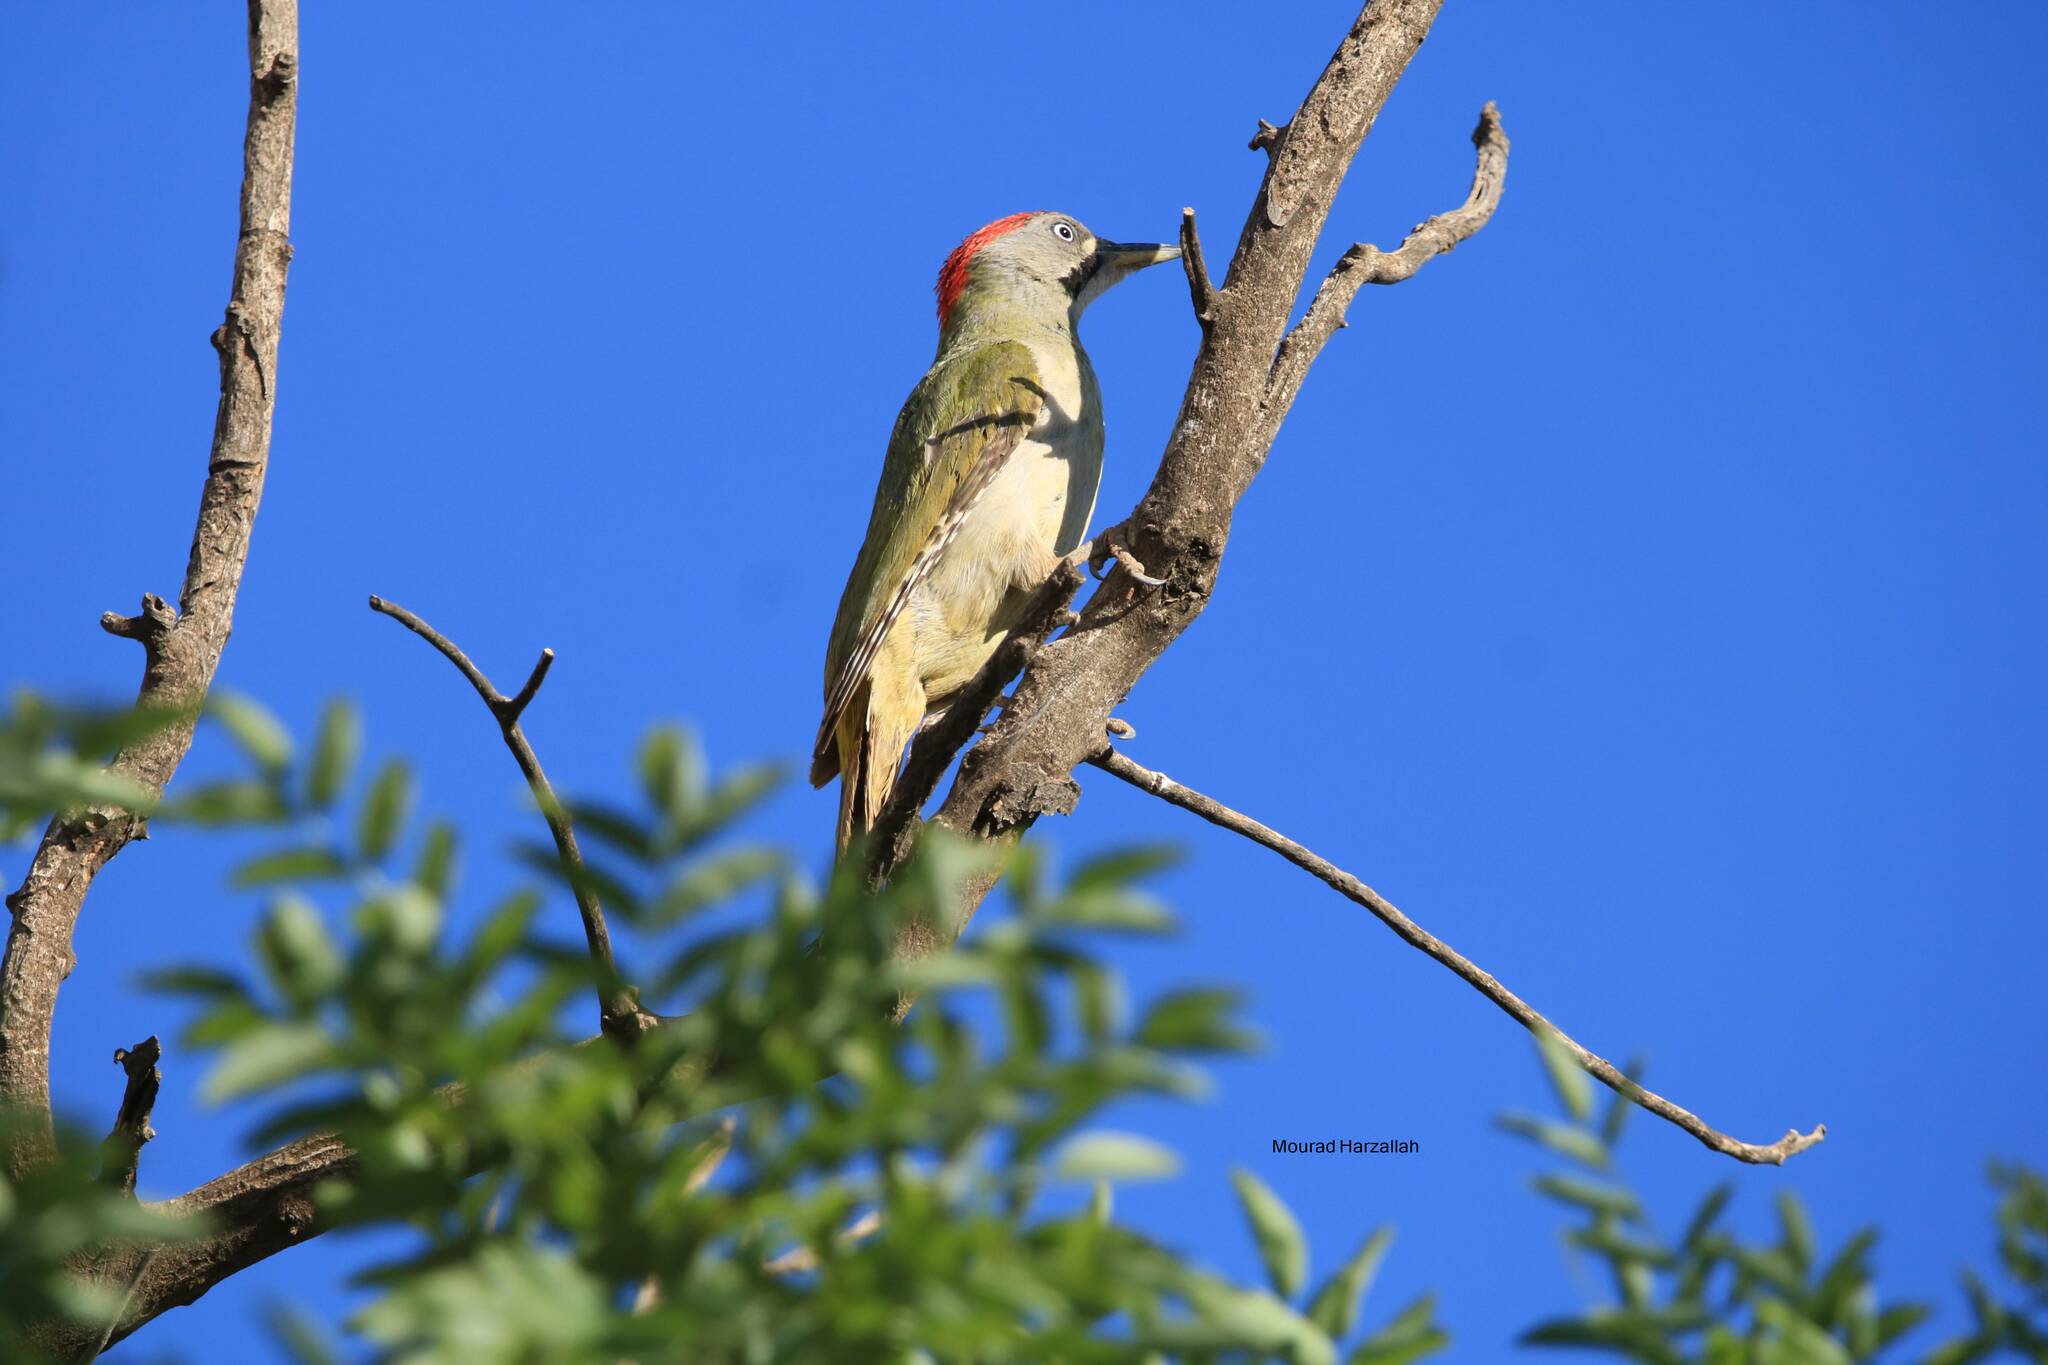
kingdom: Animalia
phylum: Chordata
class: Aves
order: Piciformes
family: Picidae
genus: Picus
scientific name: Picus vaillantii
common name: Levaillant's woodpecker
